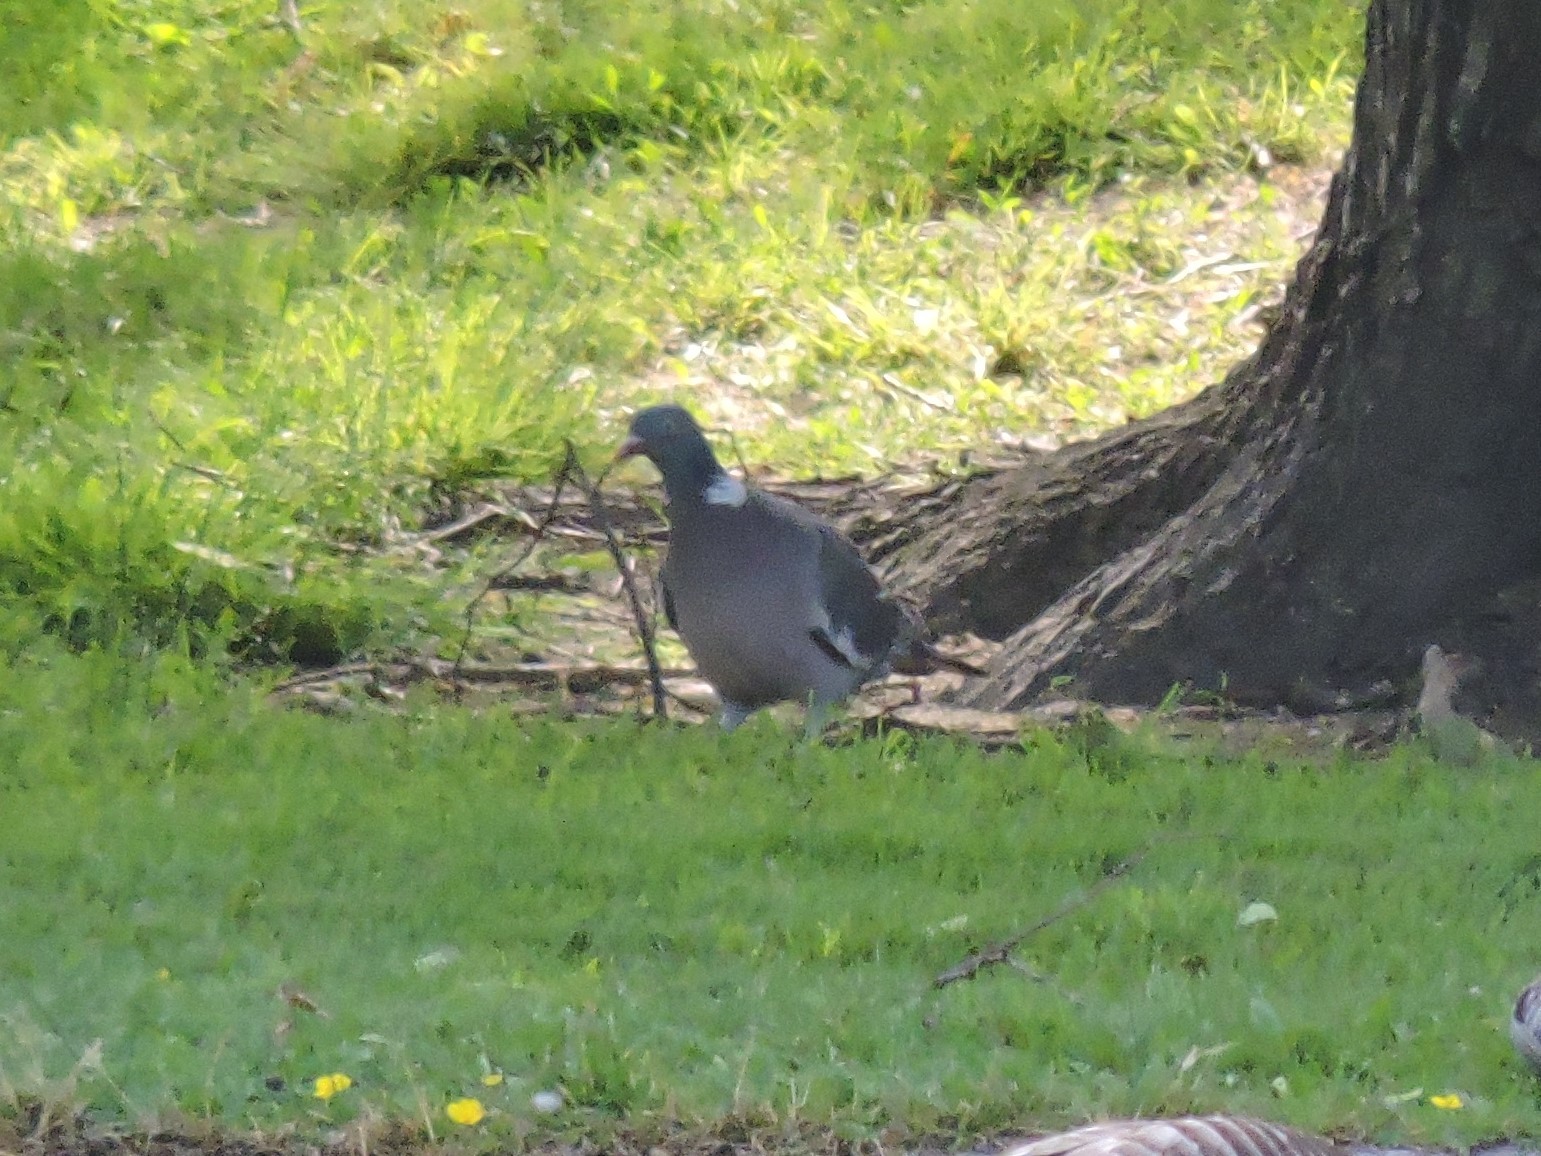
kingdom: Animalia
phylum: Chordata
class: Aves
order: Columbiformes
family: Columbidae
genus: Columba
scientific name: Columba palumbus
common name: Common wood pigeon
